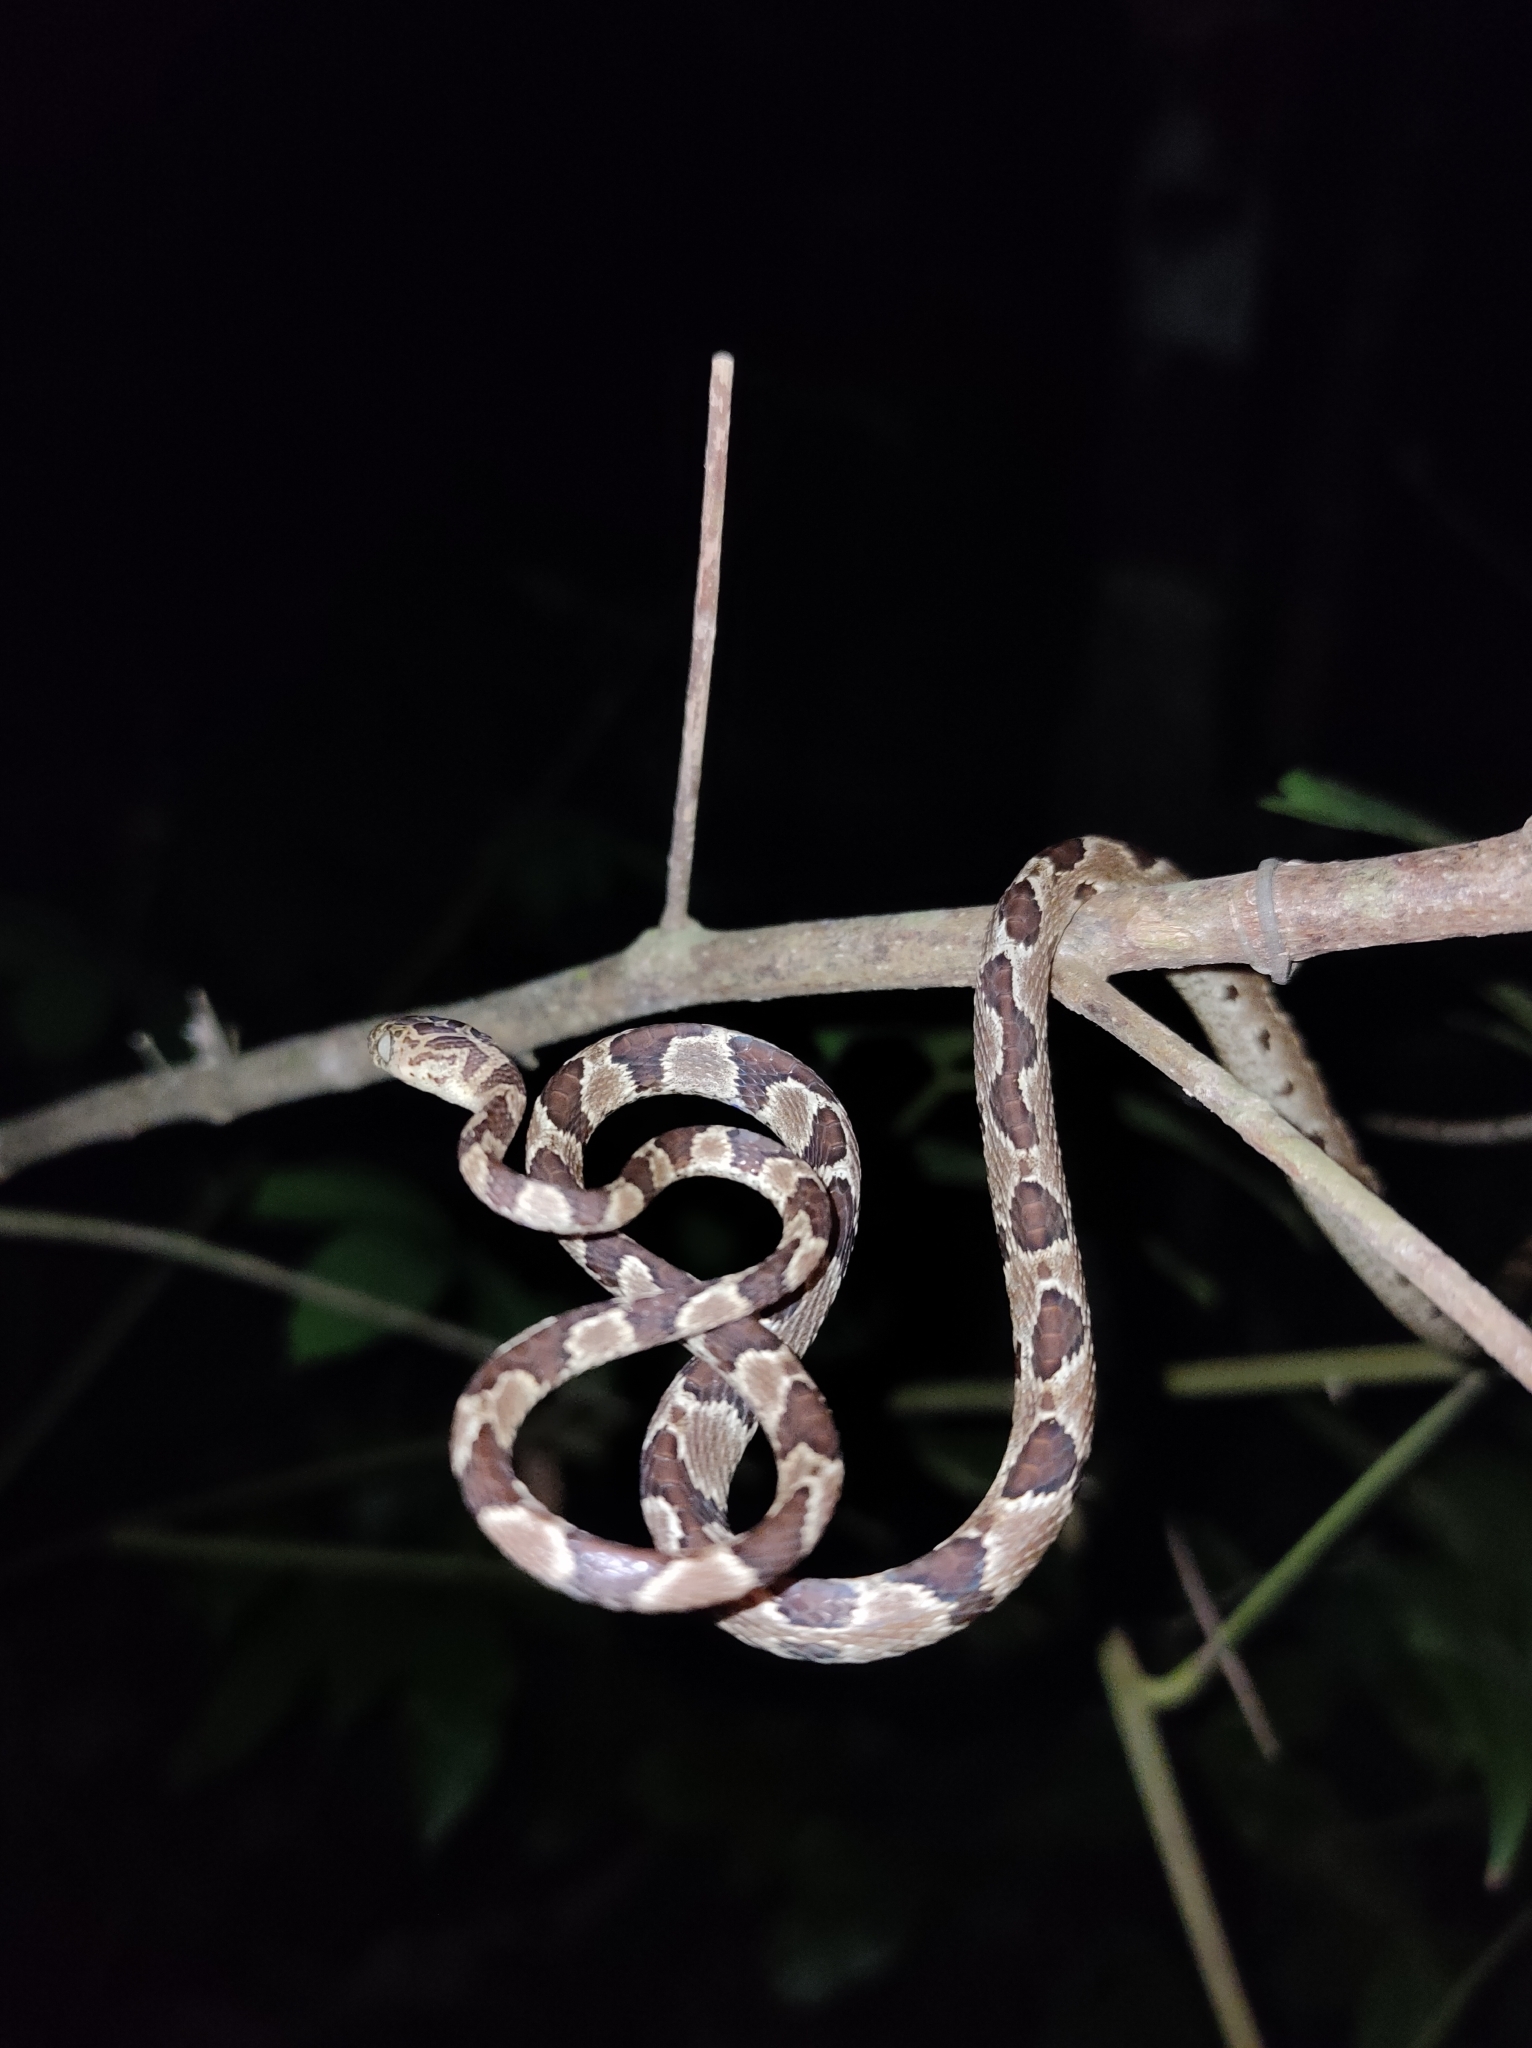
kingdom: Animalia
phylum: Chordata
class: Squamata
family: Colubridae
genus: Imantodes
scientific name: Imantodes gemmistratus
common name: Central american tree snake
